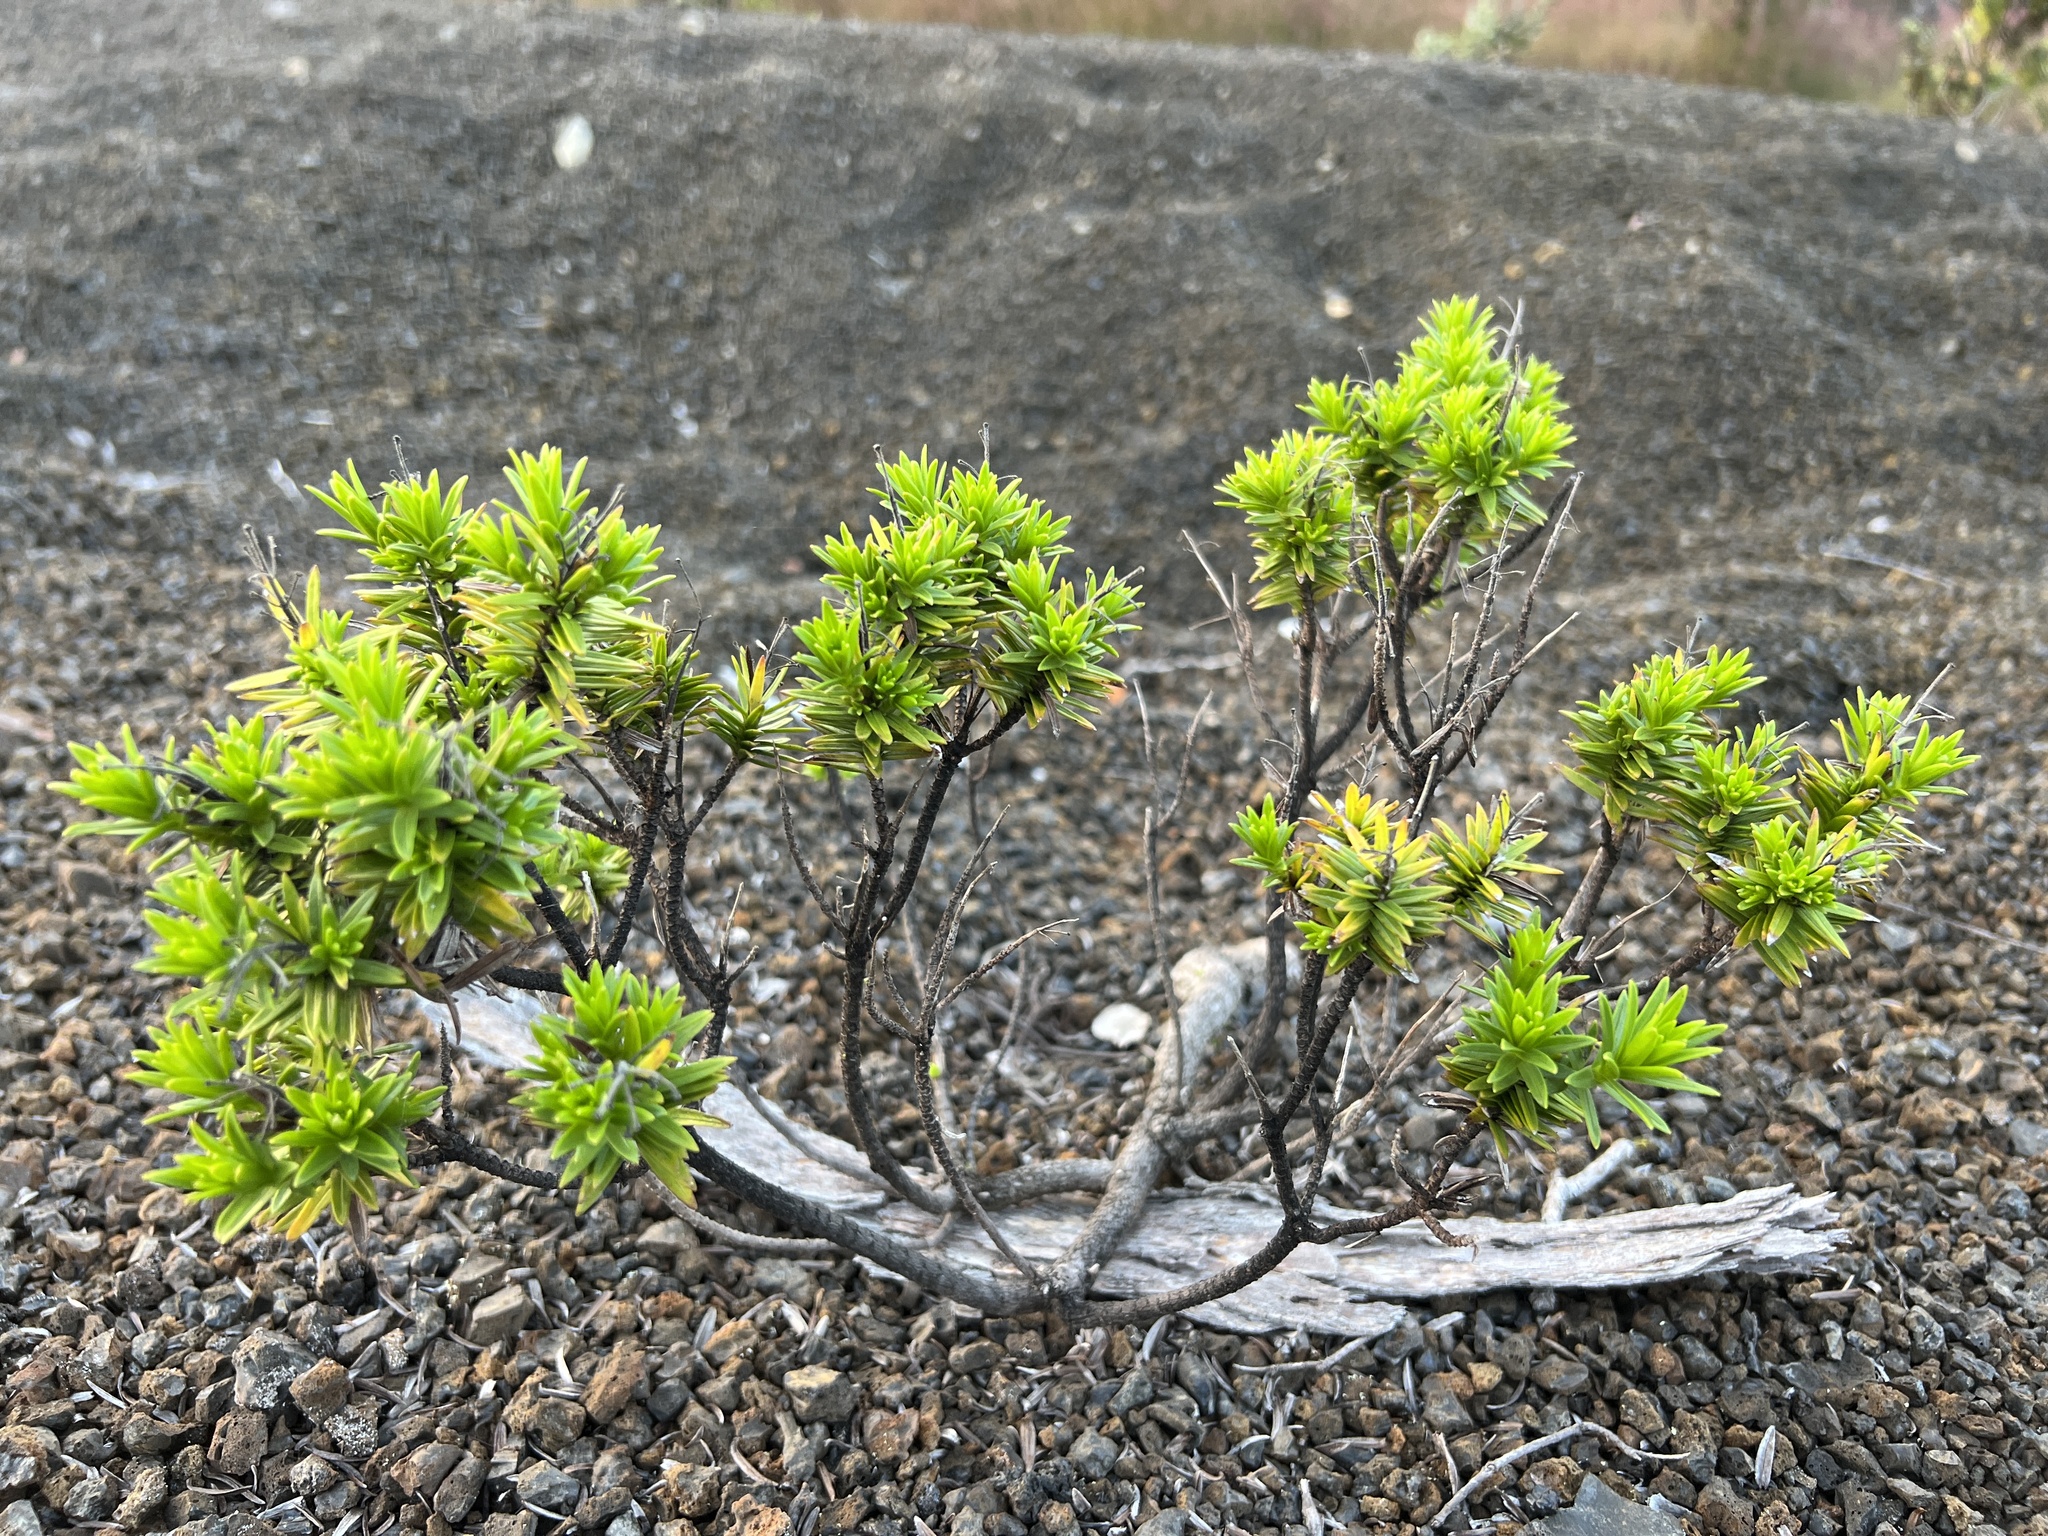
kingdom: Plantae
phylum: Tracheophyta
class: Magnoliopsida
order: Asterales
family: Asteraceae
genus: Dubautia
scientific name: Dubautia ciliolata
